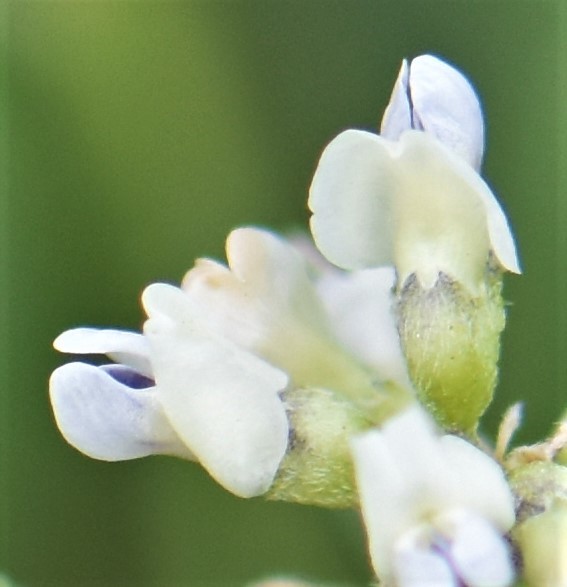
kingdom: Plantae
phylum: Tracheophyta
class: Magnoliopsida
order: Fabales
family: Fabaceae
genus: Ladeania
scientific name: Ladeania lanceolata
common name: Dune scurf-pea
